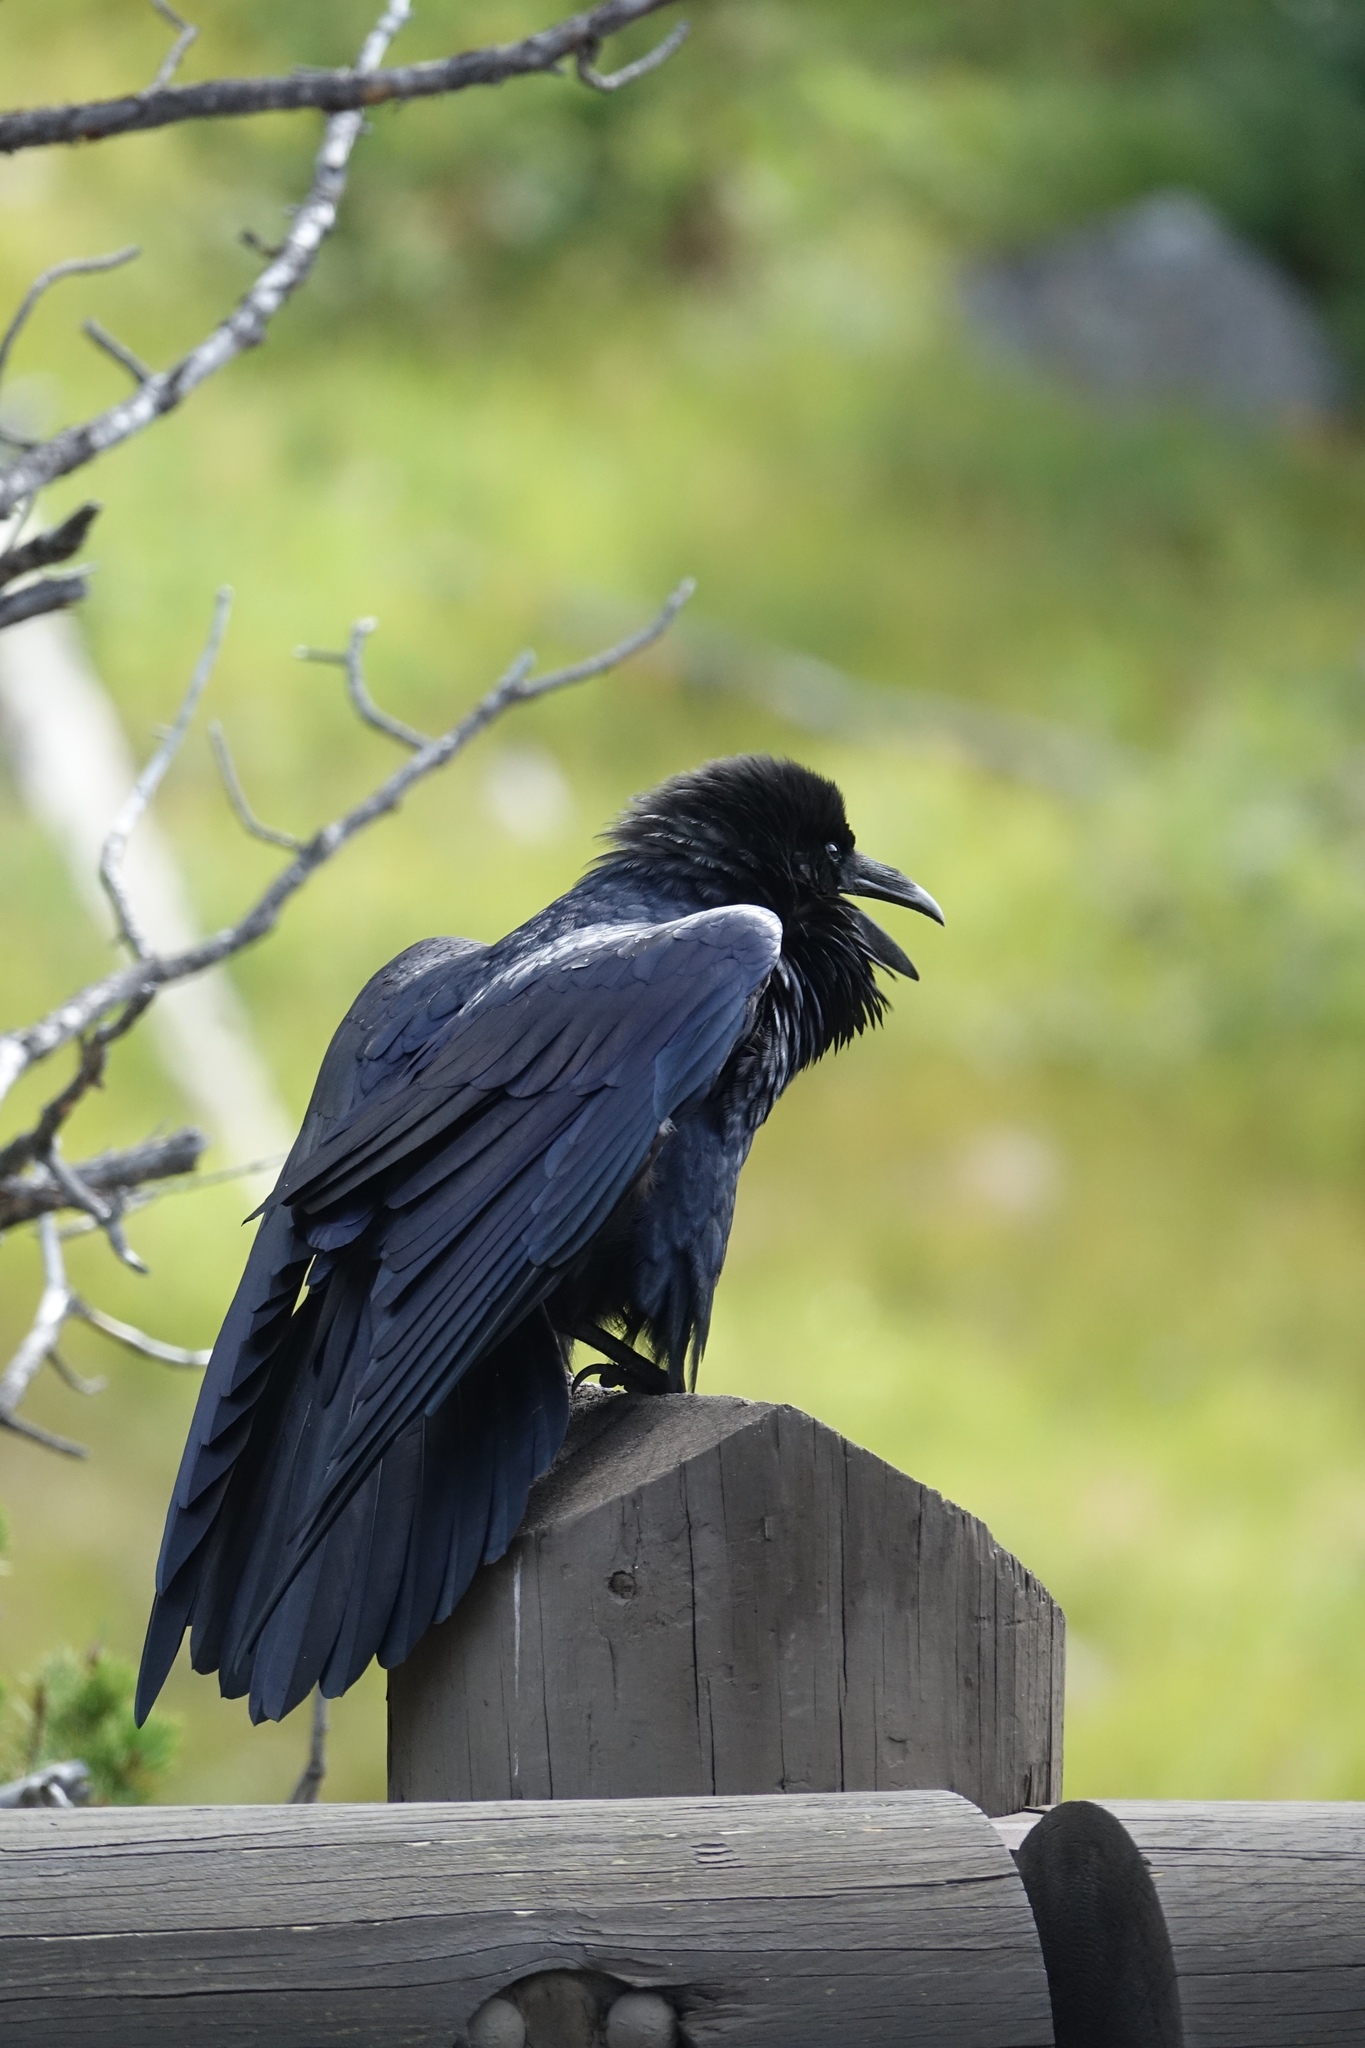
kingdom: Animalia
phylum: Chordata
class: Aves
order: Passeriformes
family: Corvidae
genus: Corvus
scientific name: Corvus corax
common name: Common raven
